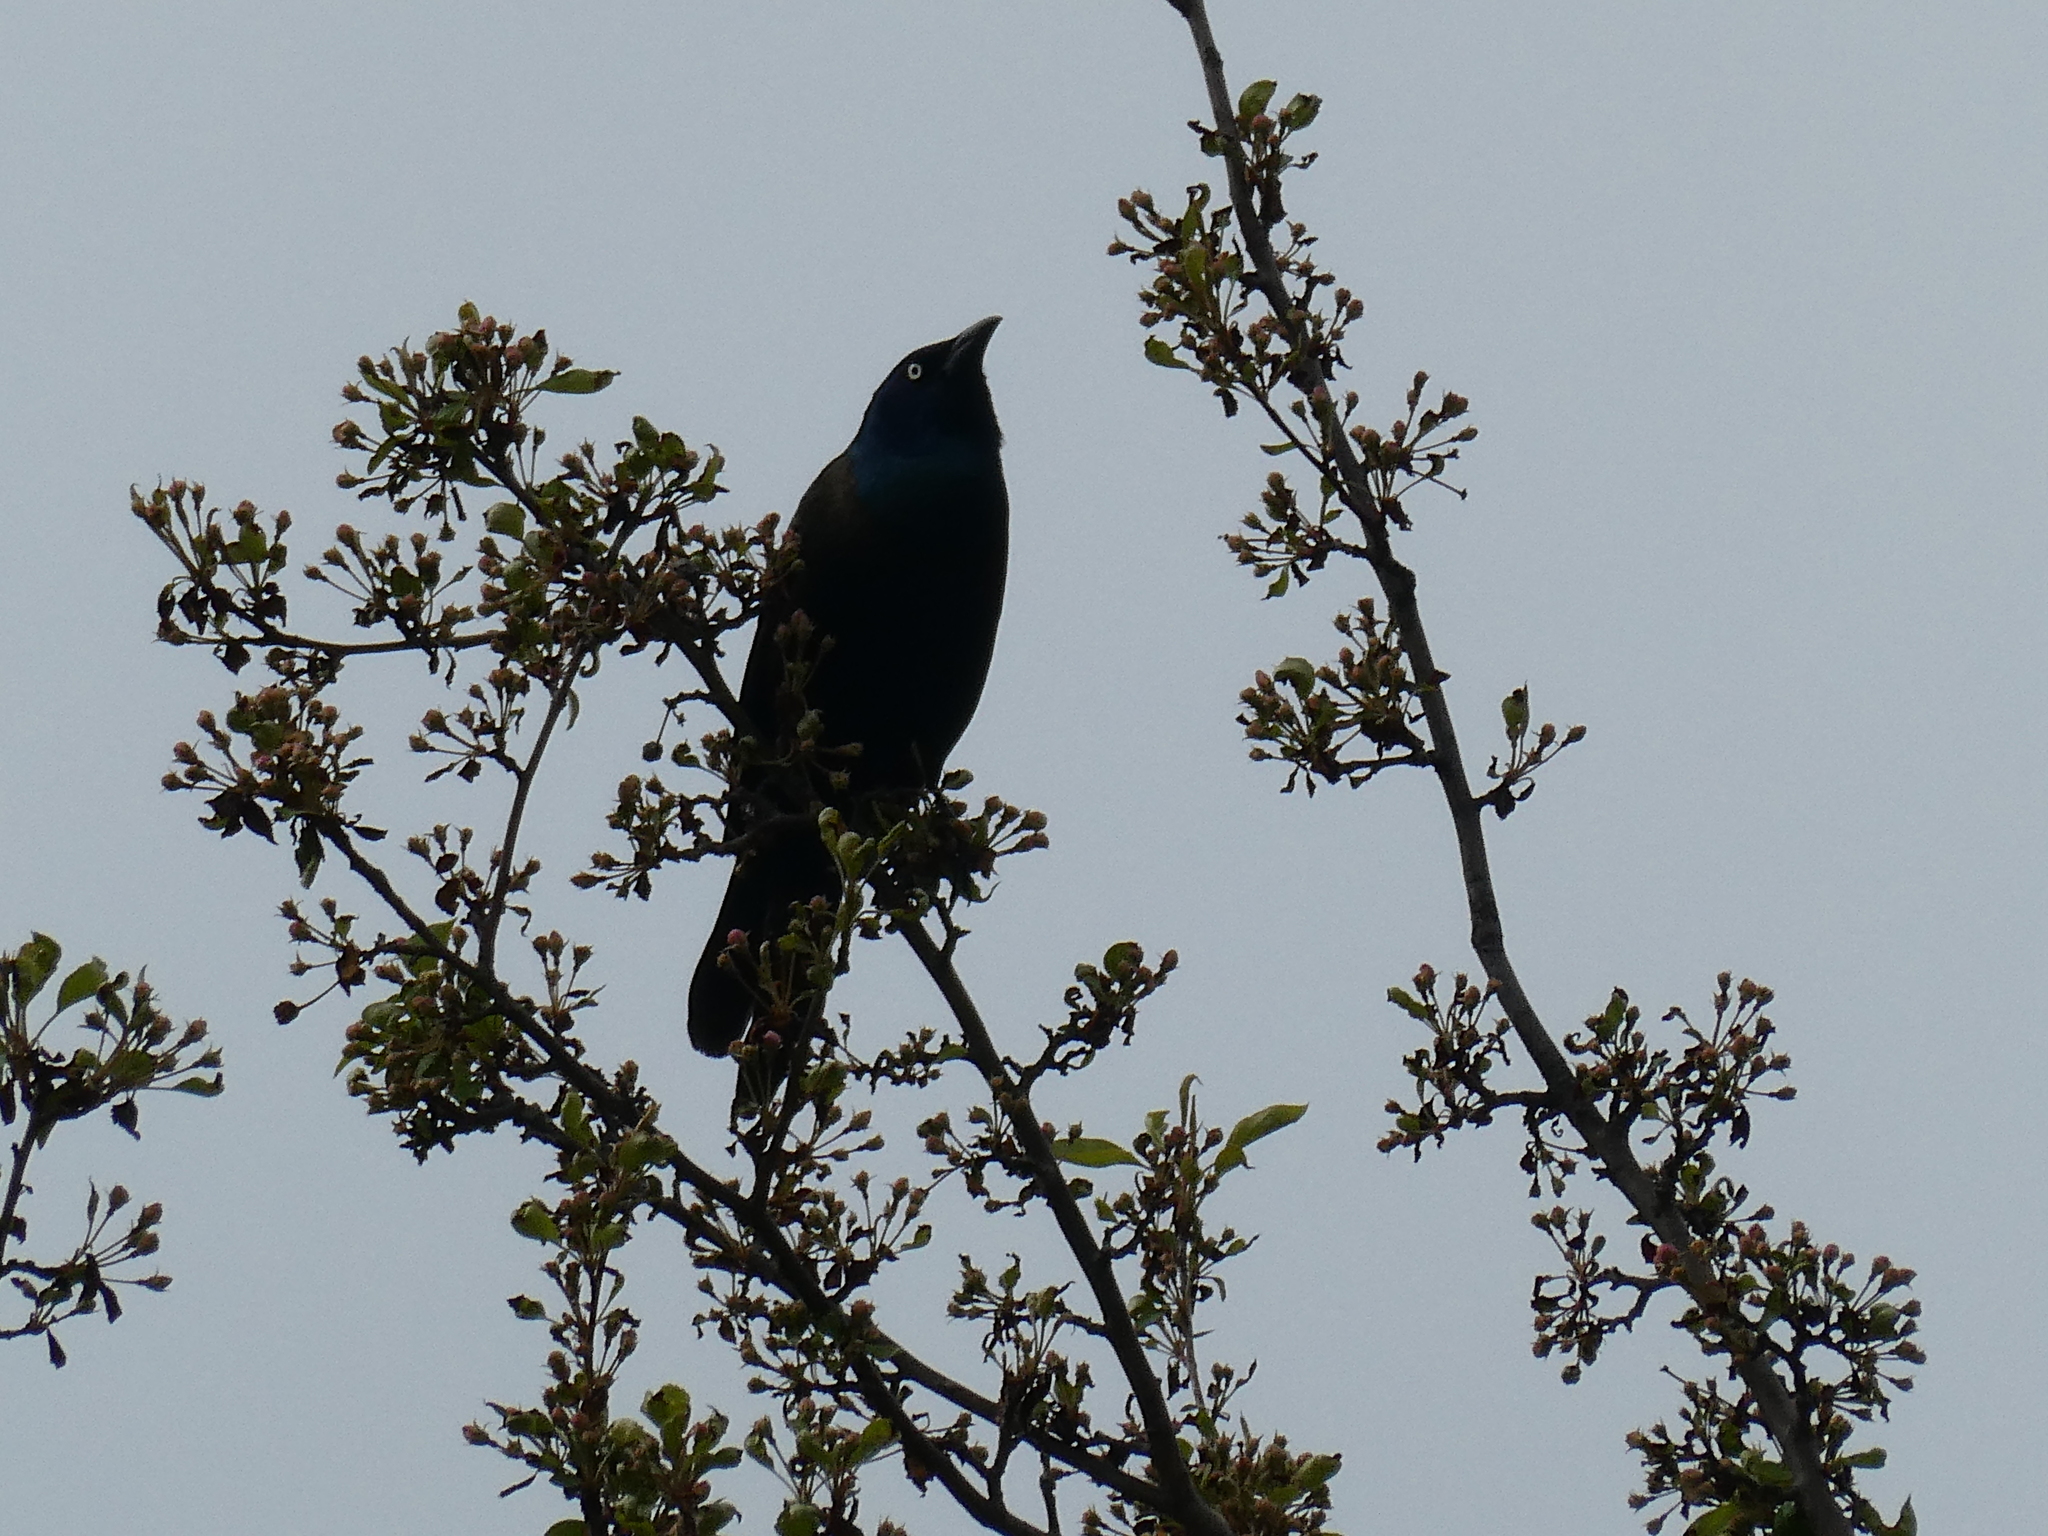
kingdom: Animalia
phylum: Chordata
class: Aves
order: Passeriformes
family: Icteridae
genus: Quiscalus
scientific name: Quiscalus quiscula
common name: Common grackle
